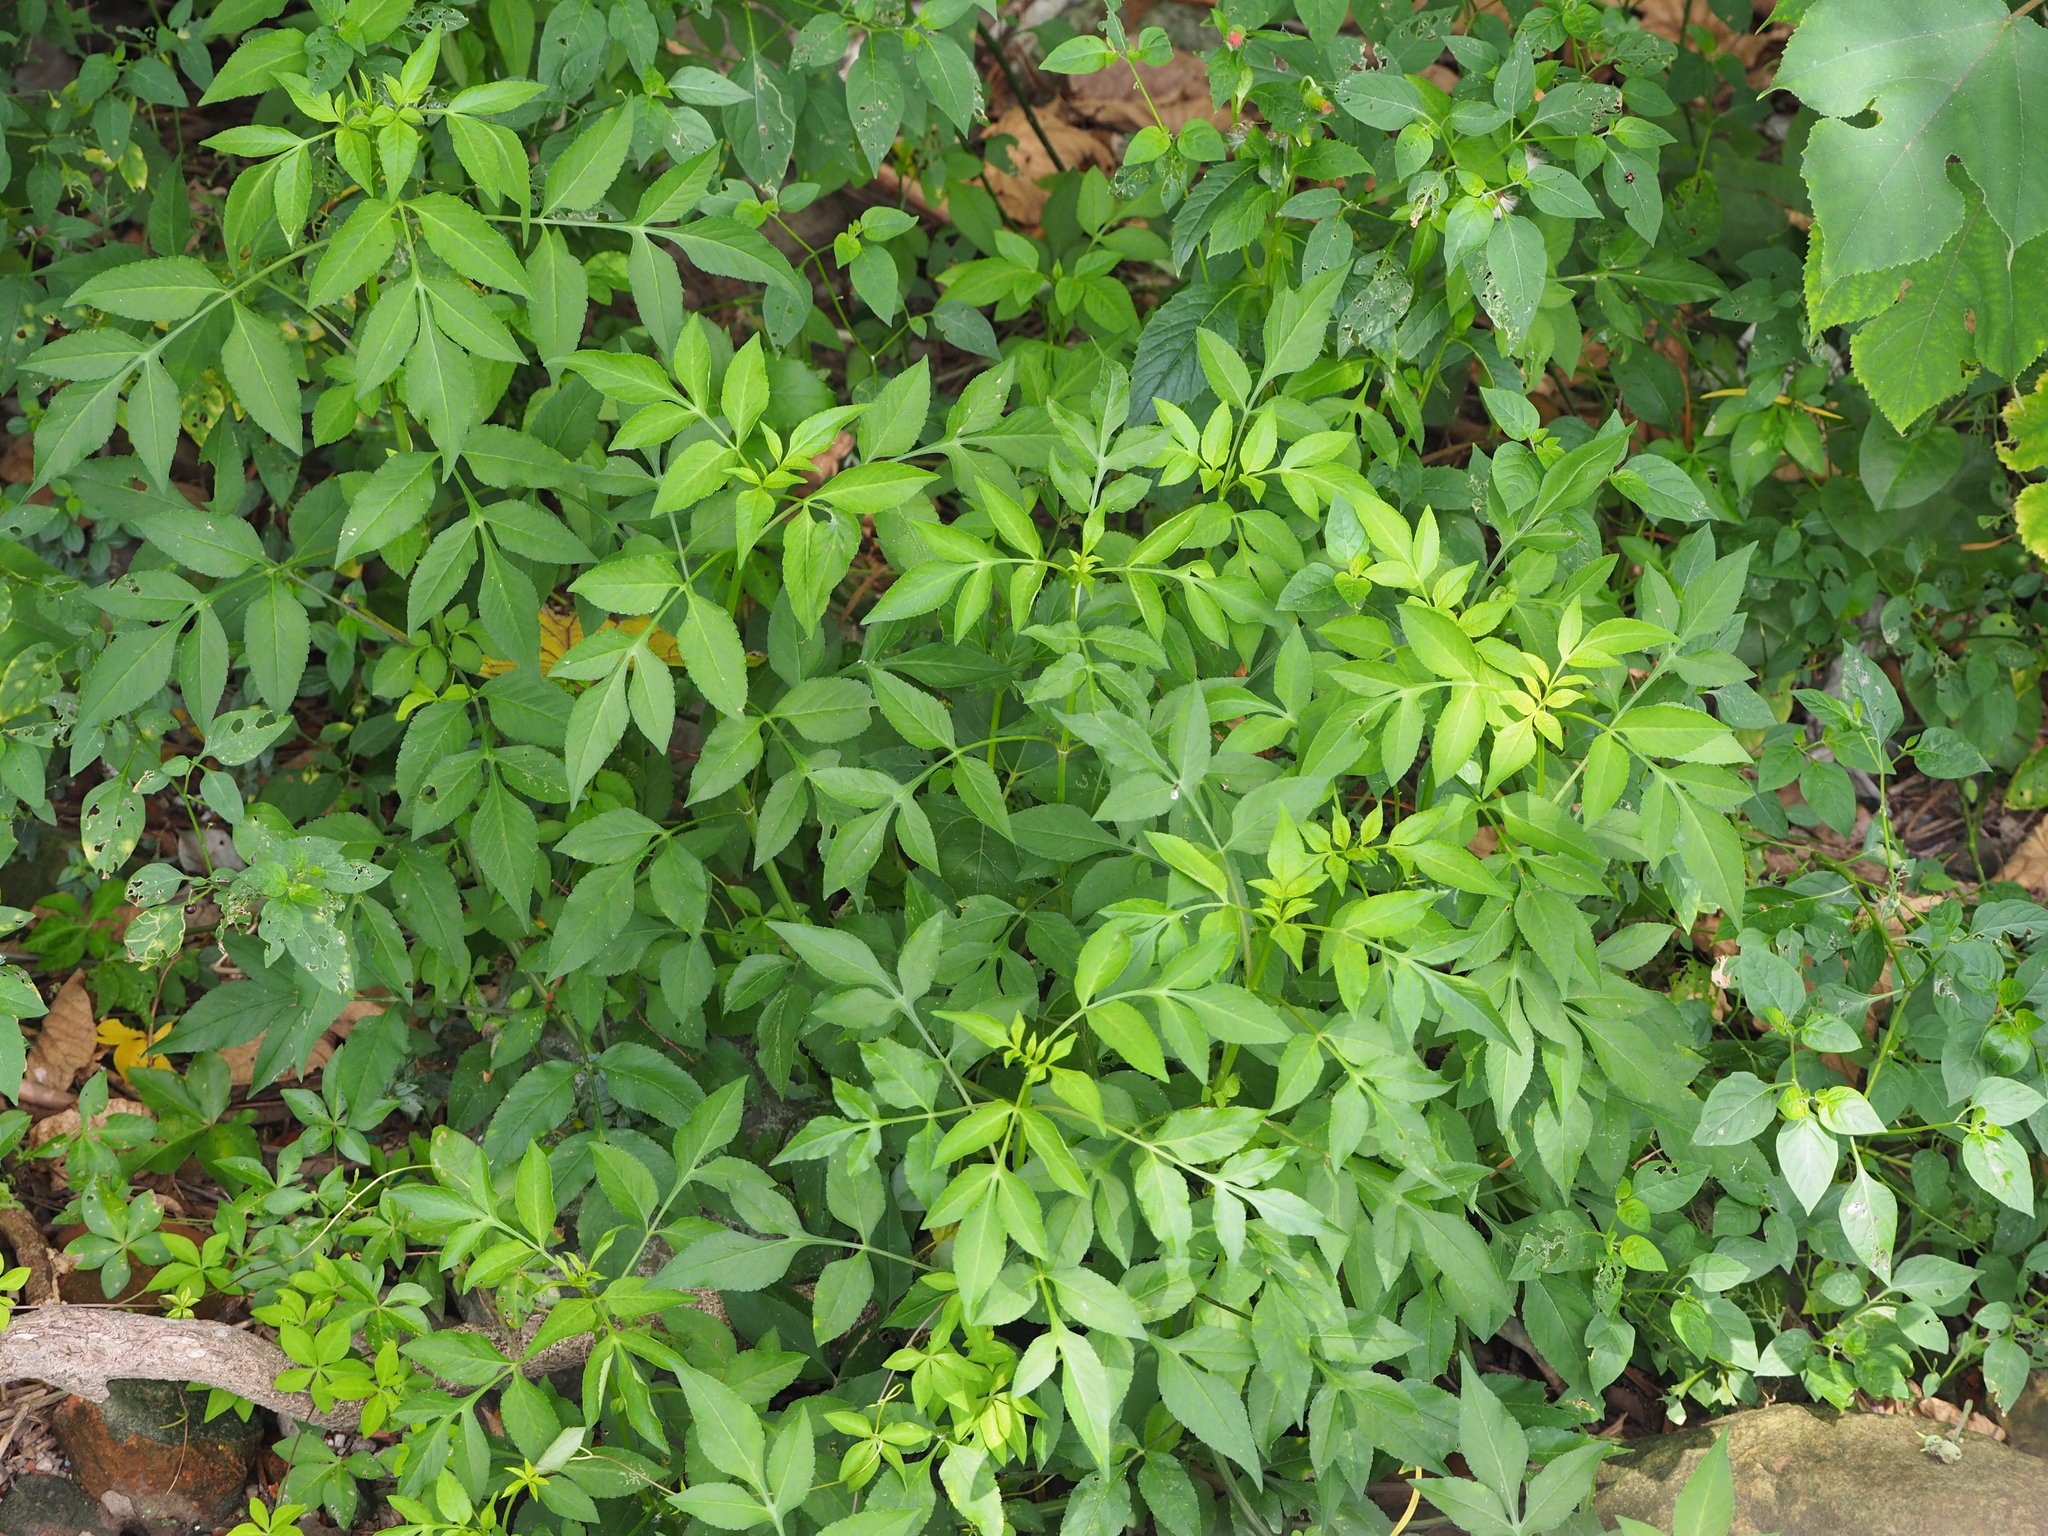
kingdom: Plantae
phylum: Tracheophyta
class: Magnoliopsida
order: Asterales
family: Asteraceae
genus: Bidens
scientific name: Bidens alba
